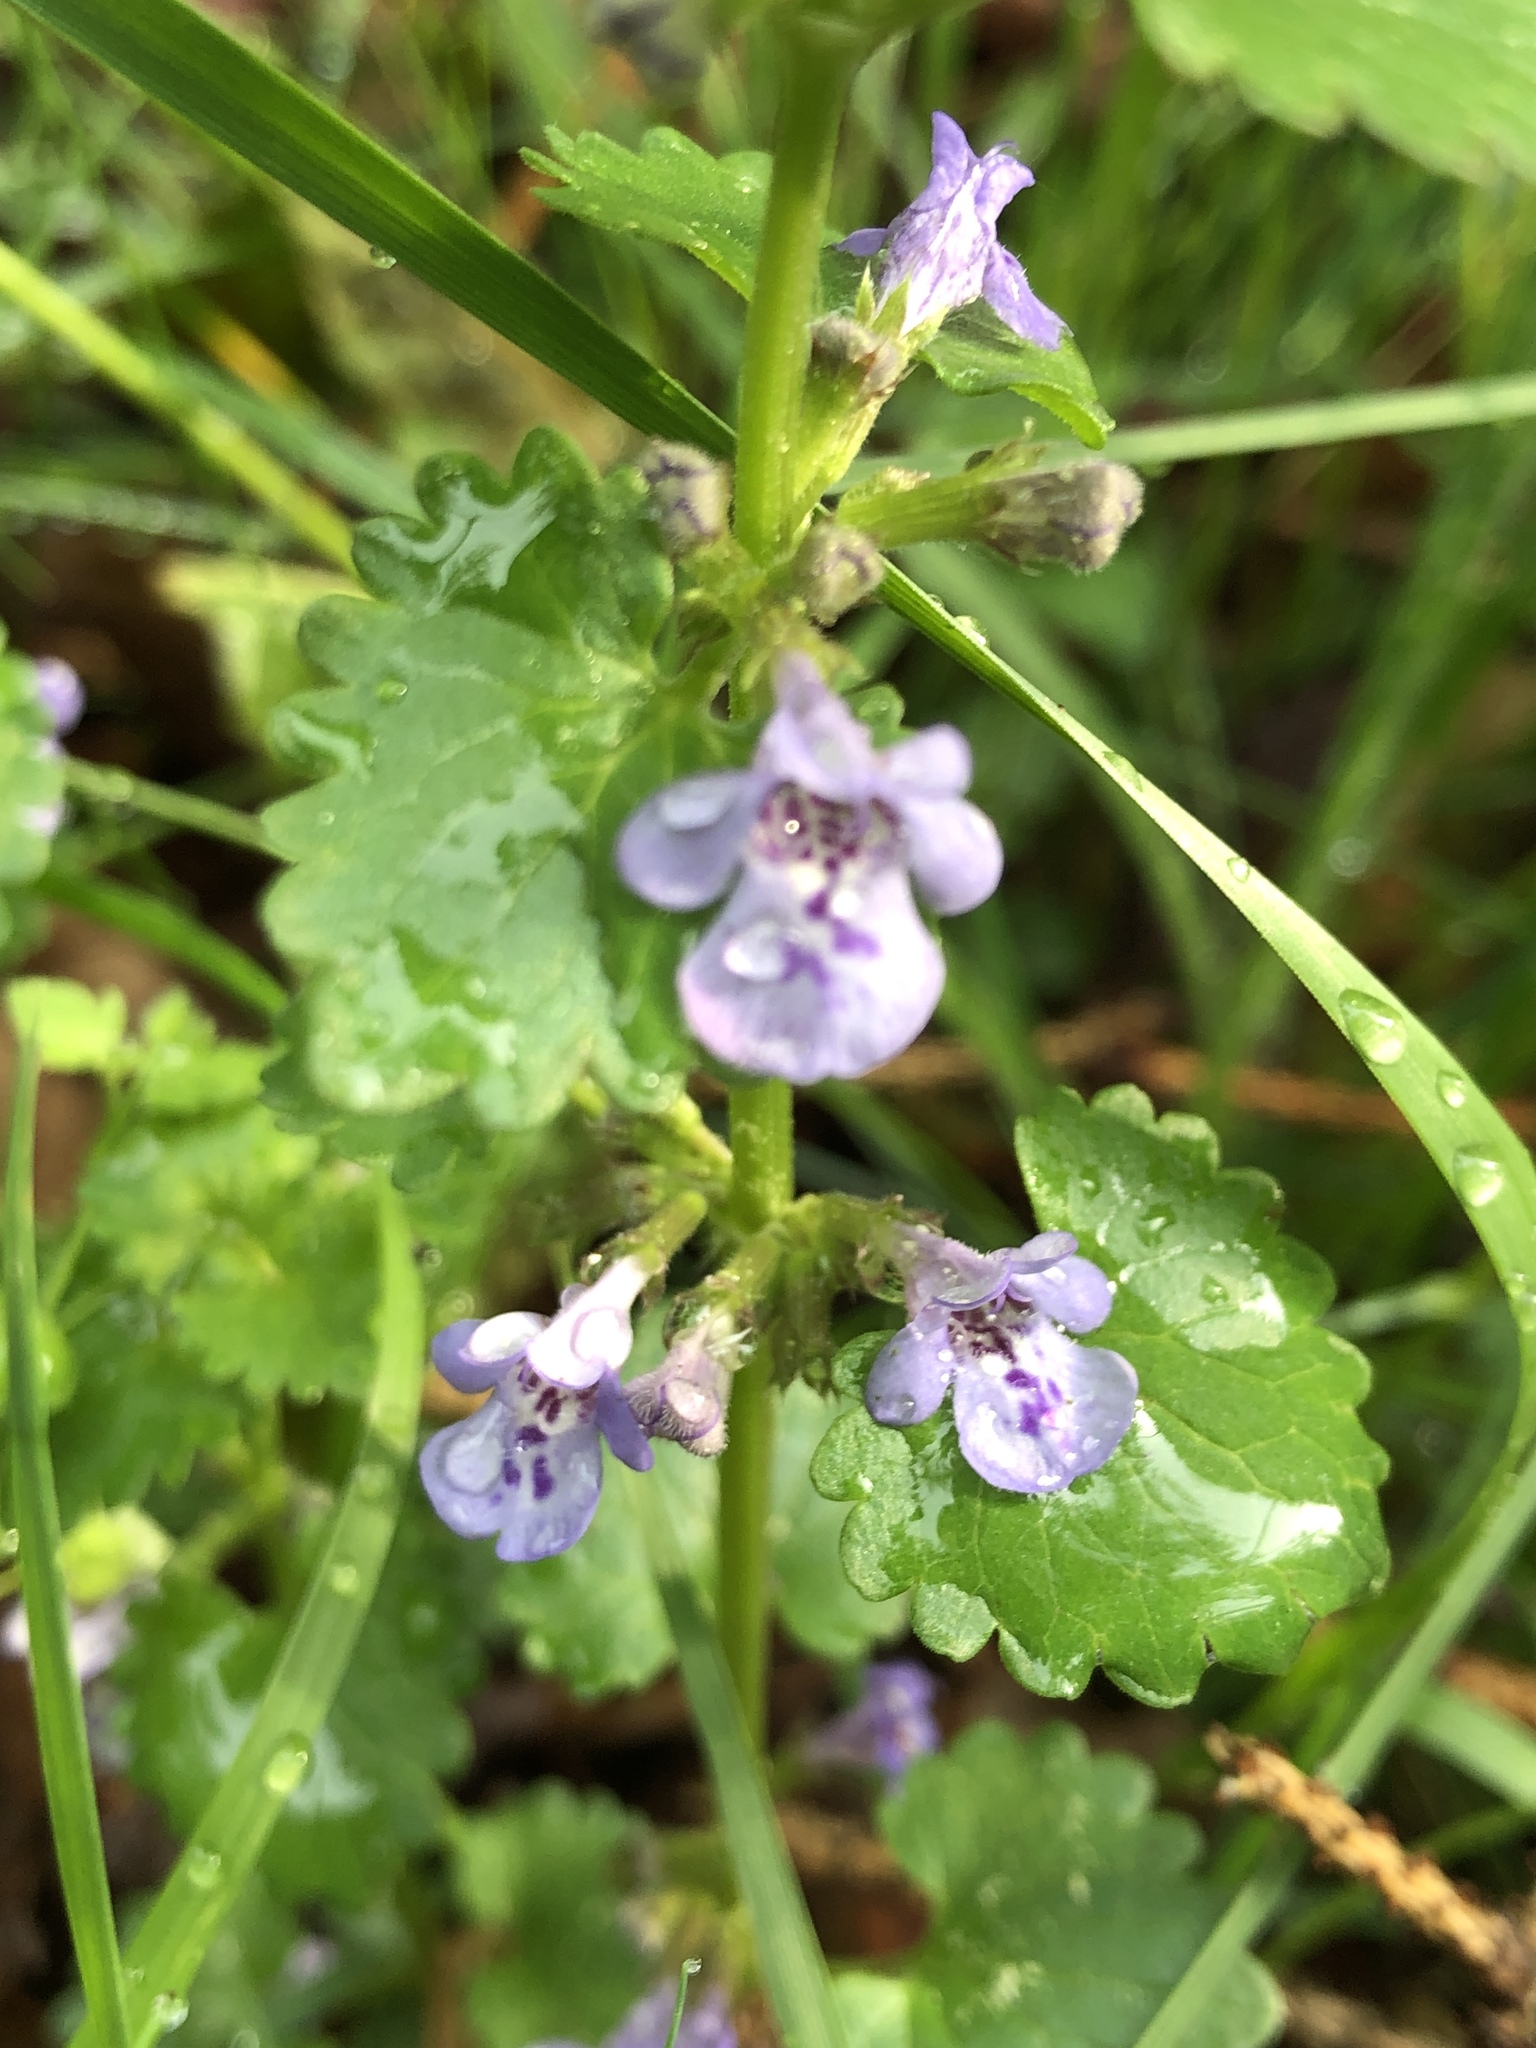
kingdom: Plantae
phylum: Tracheophyta
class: Magnoliopsida
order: Lamiales
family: Lamiaceae
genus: Glechoma
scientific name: Glechoma hederacea
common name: Ground ivy
